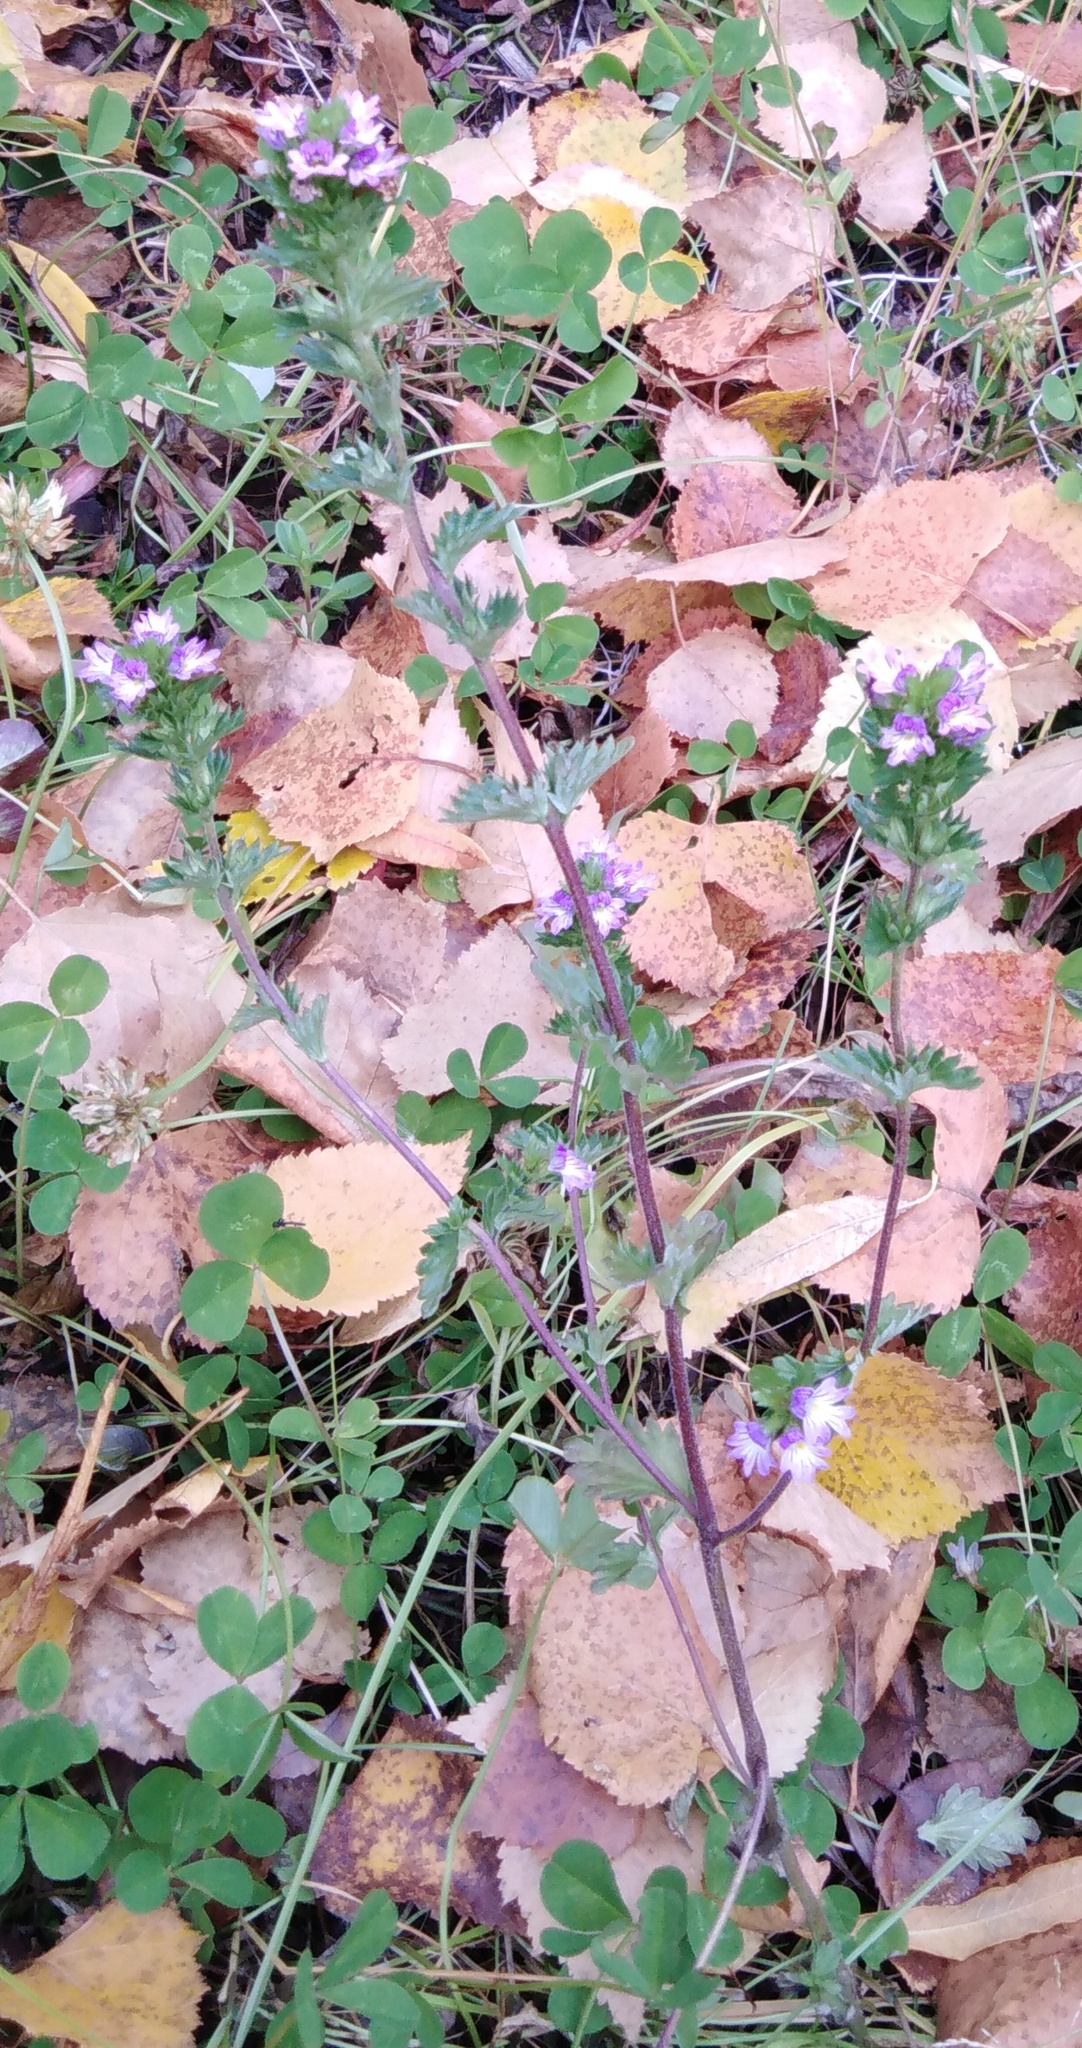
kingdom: Plantae
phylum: Tracheophyta
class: Magnoliopsida
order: Lamiales
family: Orobanchaceae
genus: Euphrasia
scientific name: Euphrasia maximowiczii
